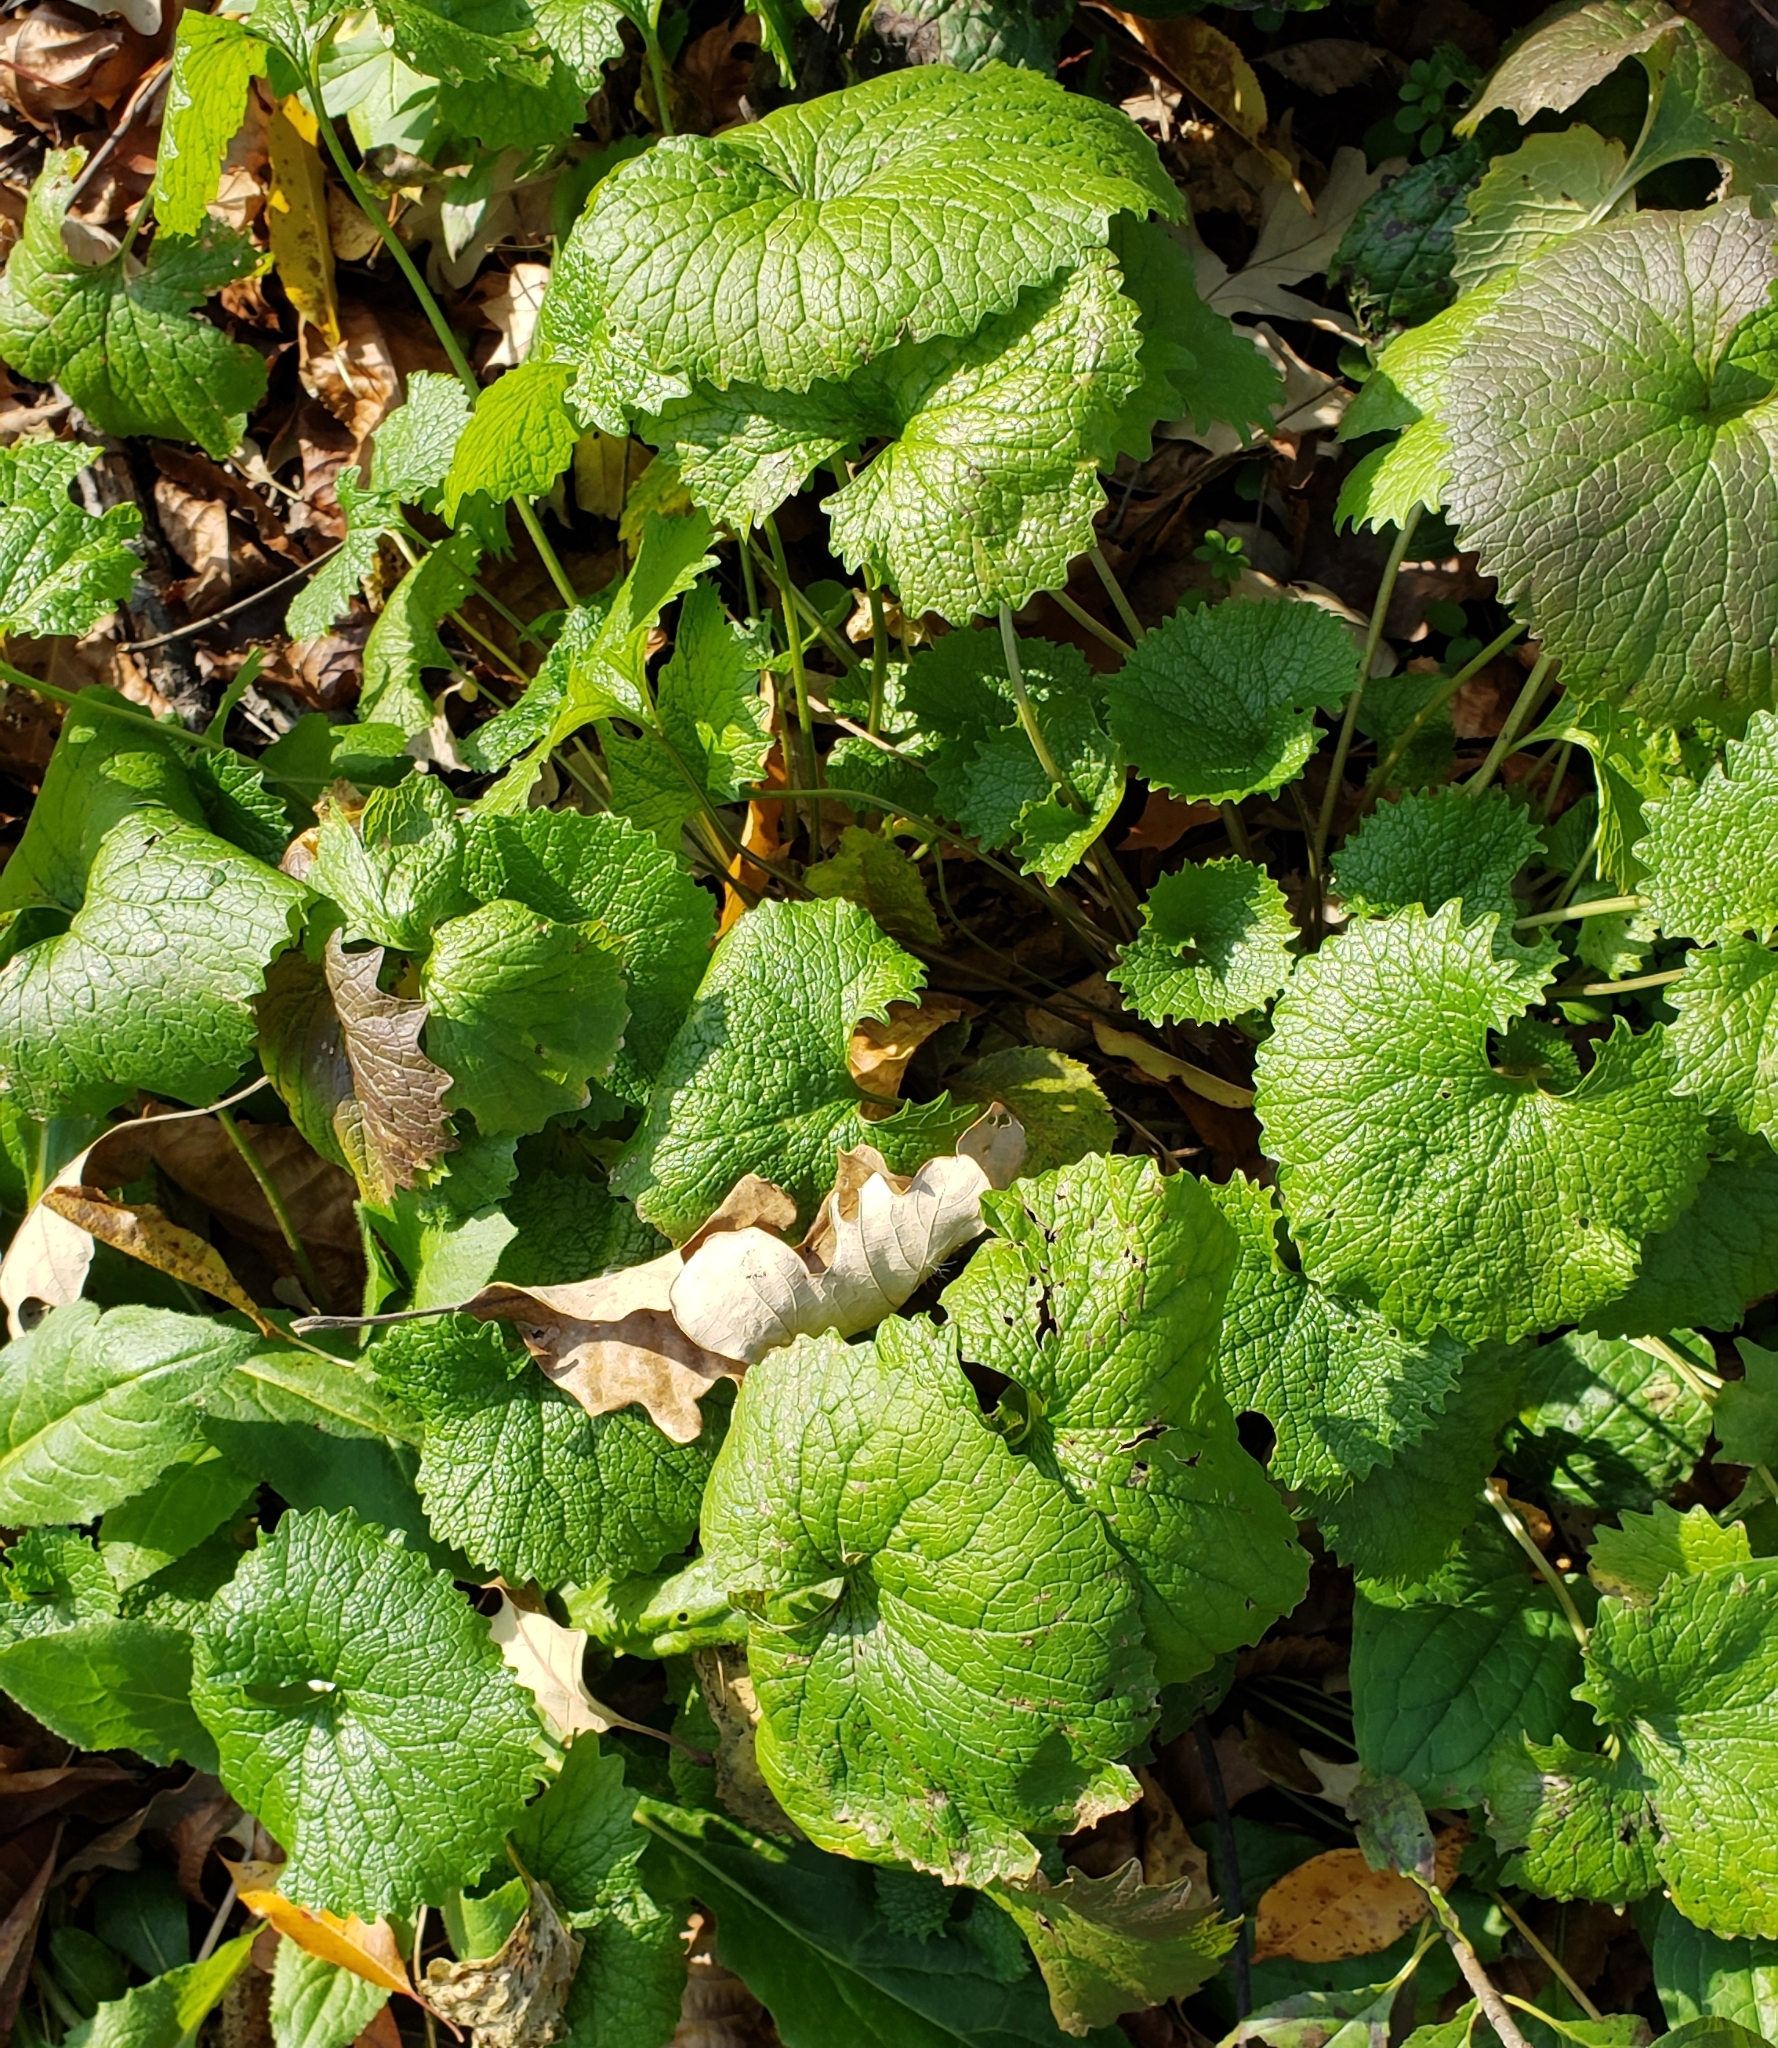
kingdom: Plantae
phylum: Tracheophyta
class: Magnoliopsida
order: Brassicales
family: Brassicaceae
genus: Alliaria
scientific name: Alliaria petiolata
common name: Garlic mustard
